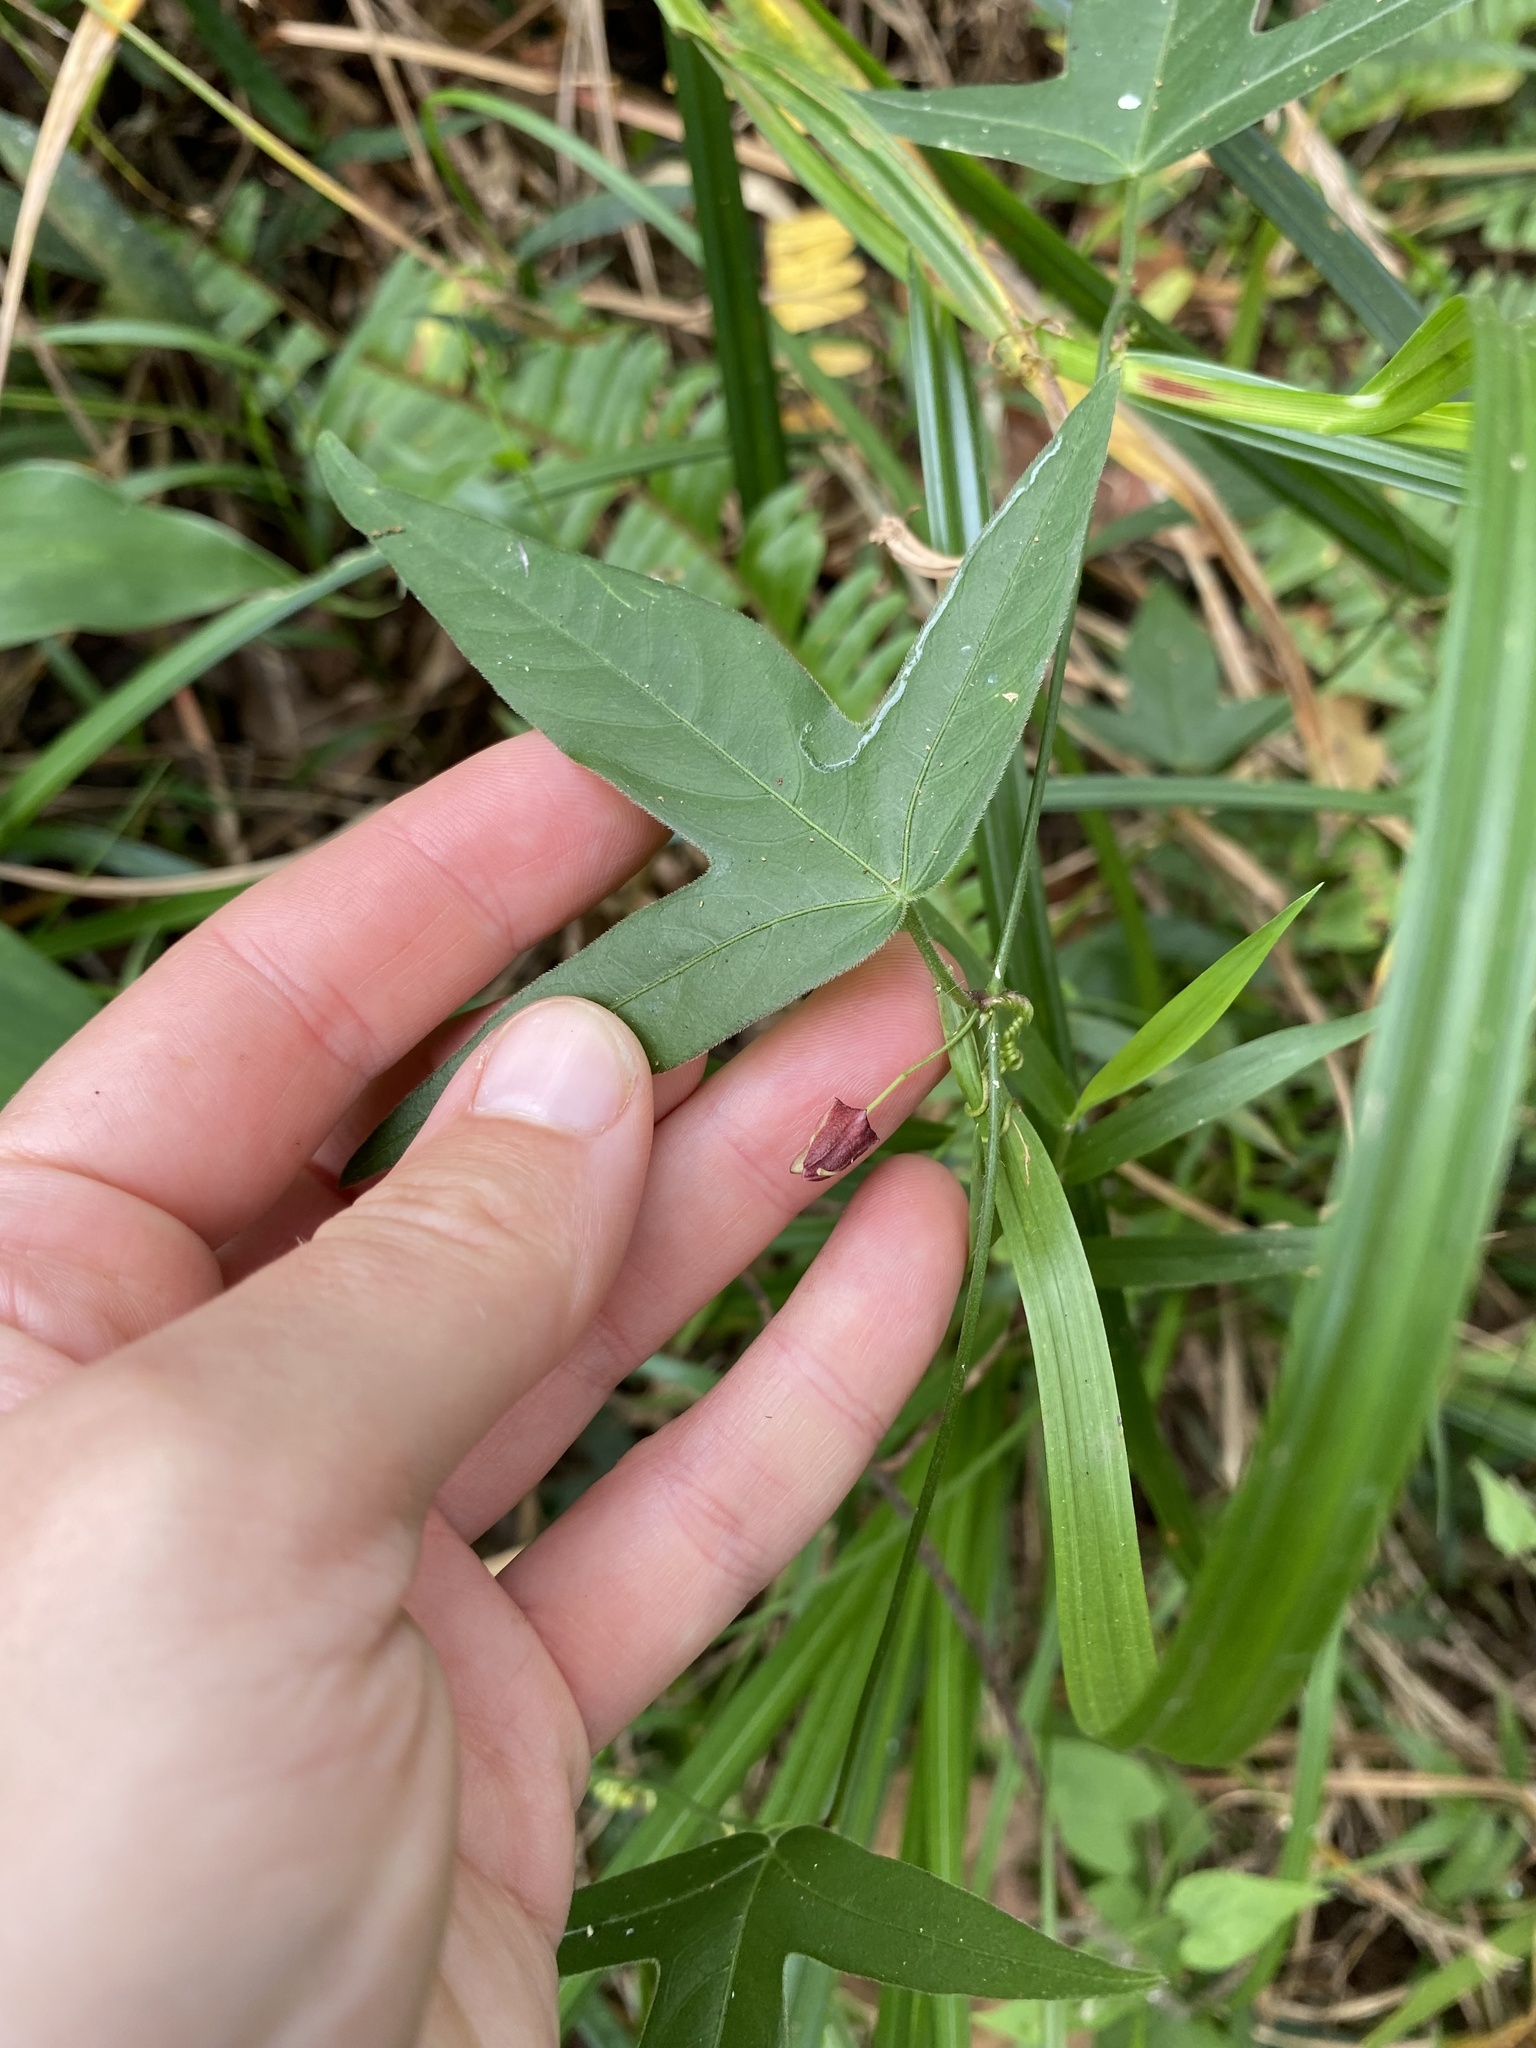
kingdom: Plantae
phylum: Tracheophyta
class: Magnoliopsida
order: Malpighiales
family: Passifloraceae
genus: Passiflora
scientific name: Passiflora suberosa
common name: Wild passionfruit
